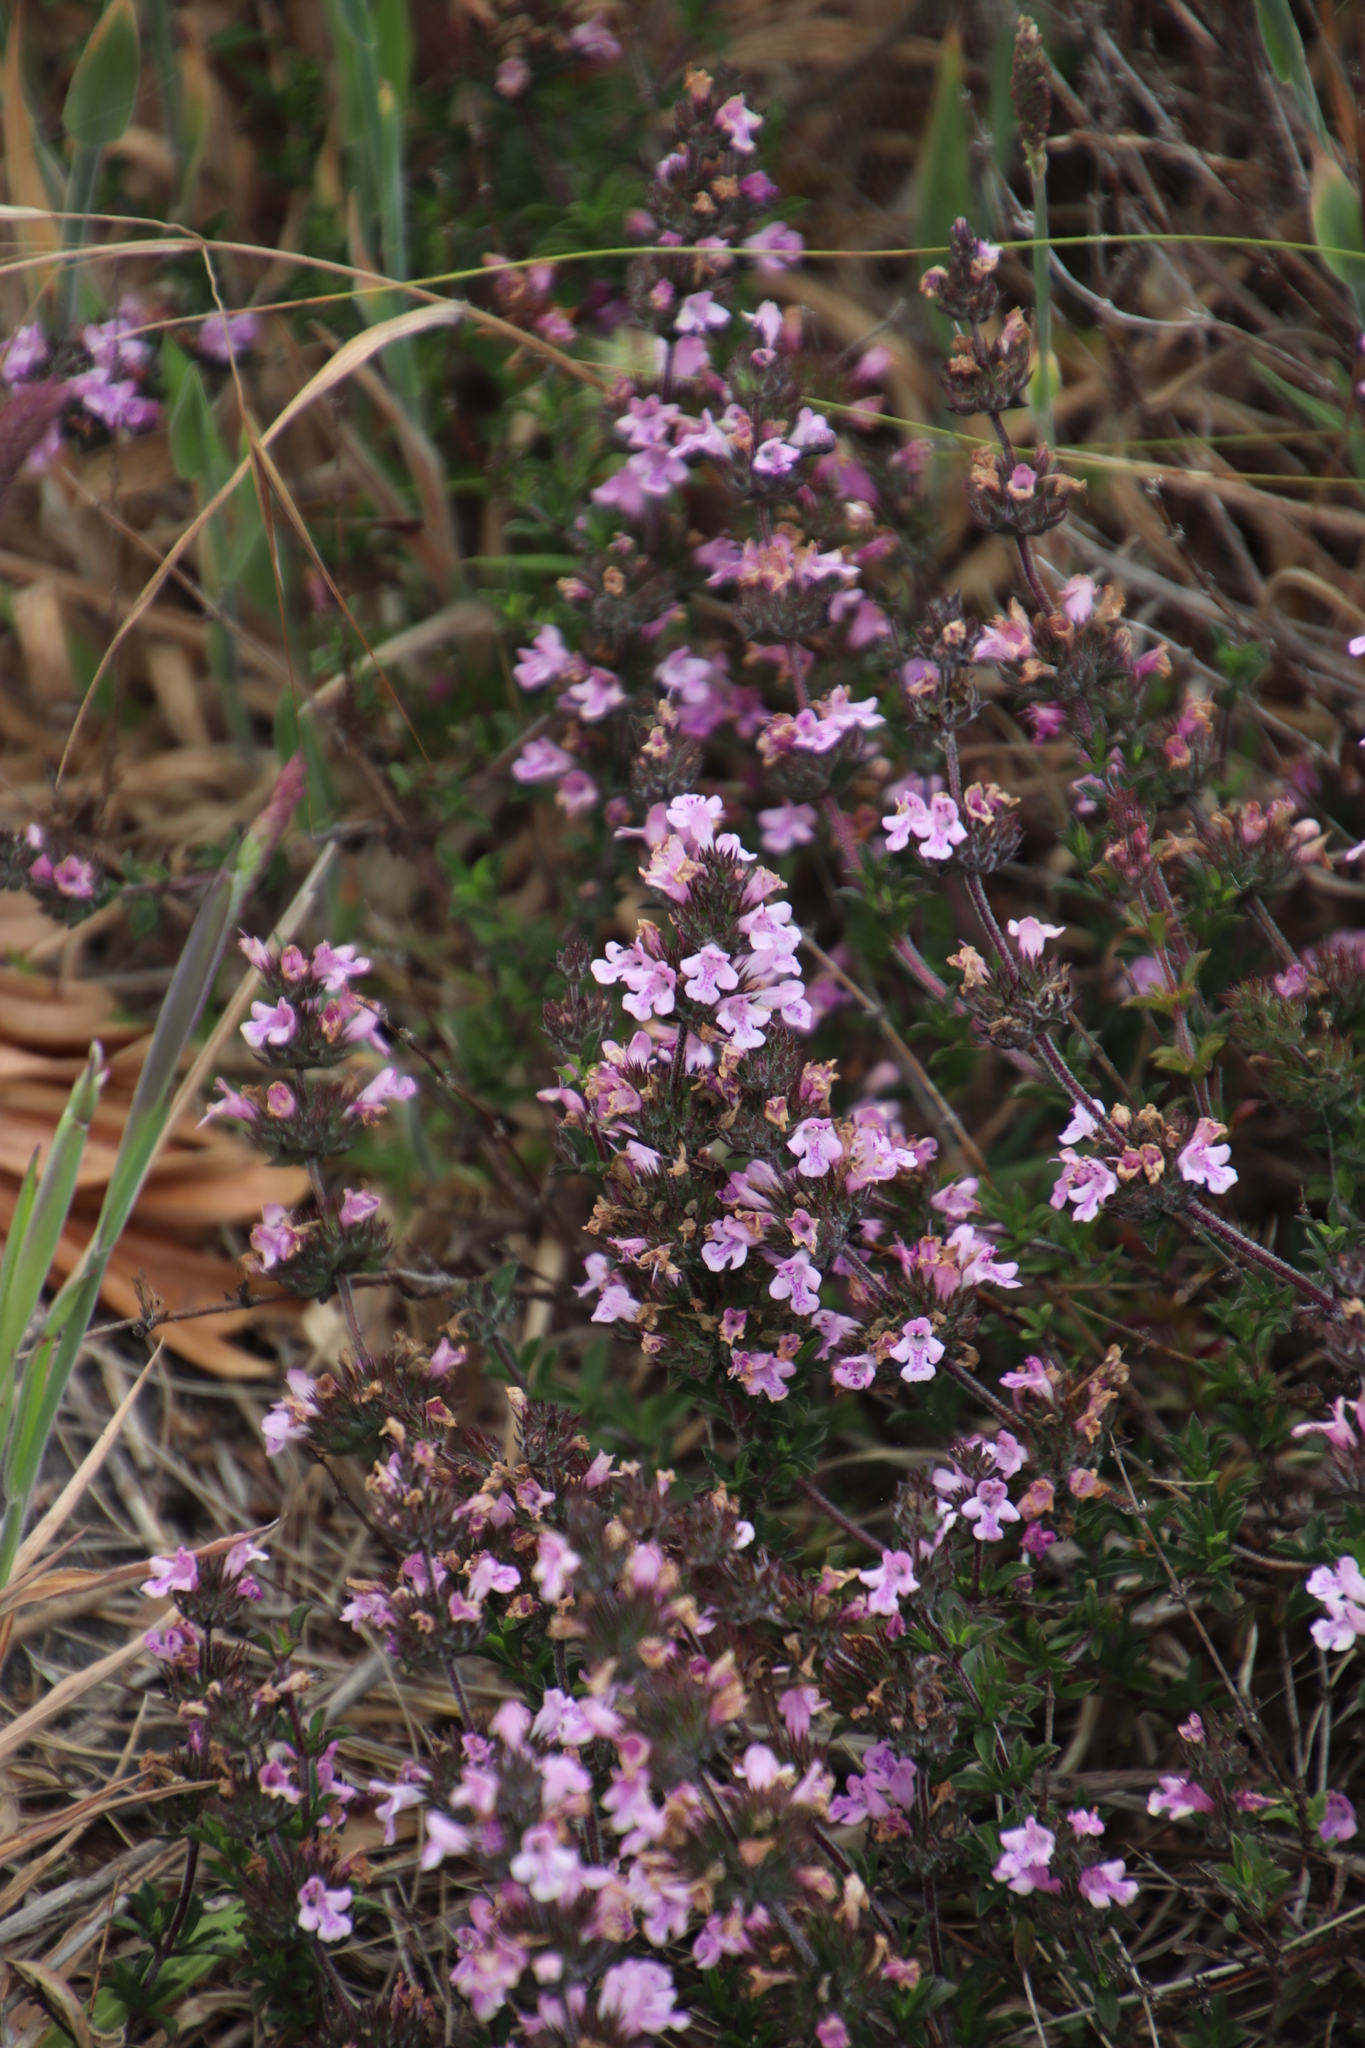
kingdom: Plantae
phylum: Tracheophyta
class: Magnoliopsida
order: Lamiales
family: Lamiaceae
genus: Satureja
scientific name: Satureja thymbra
